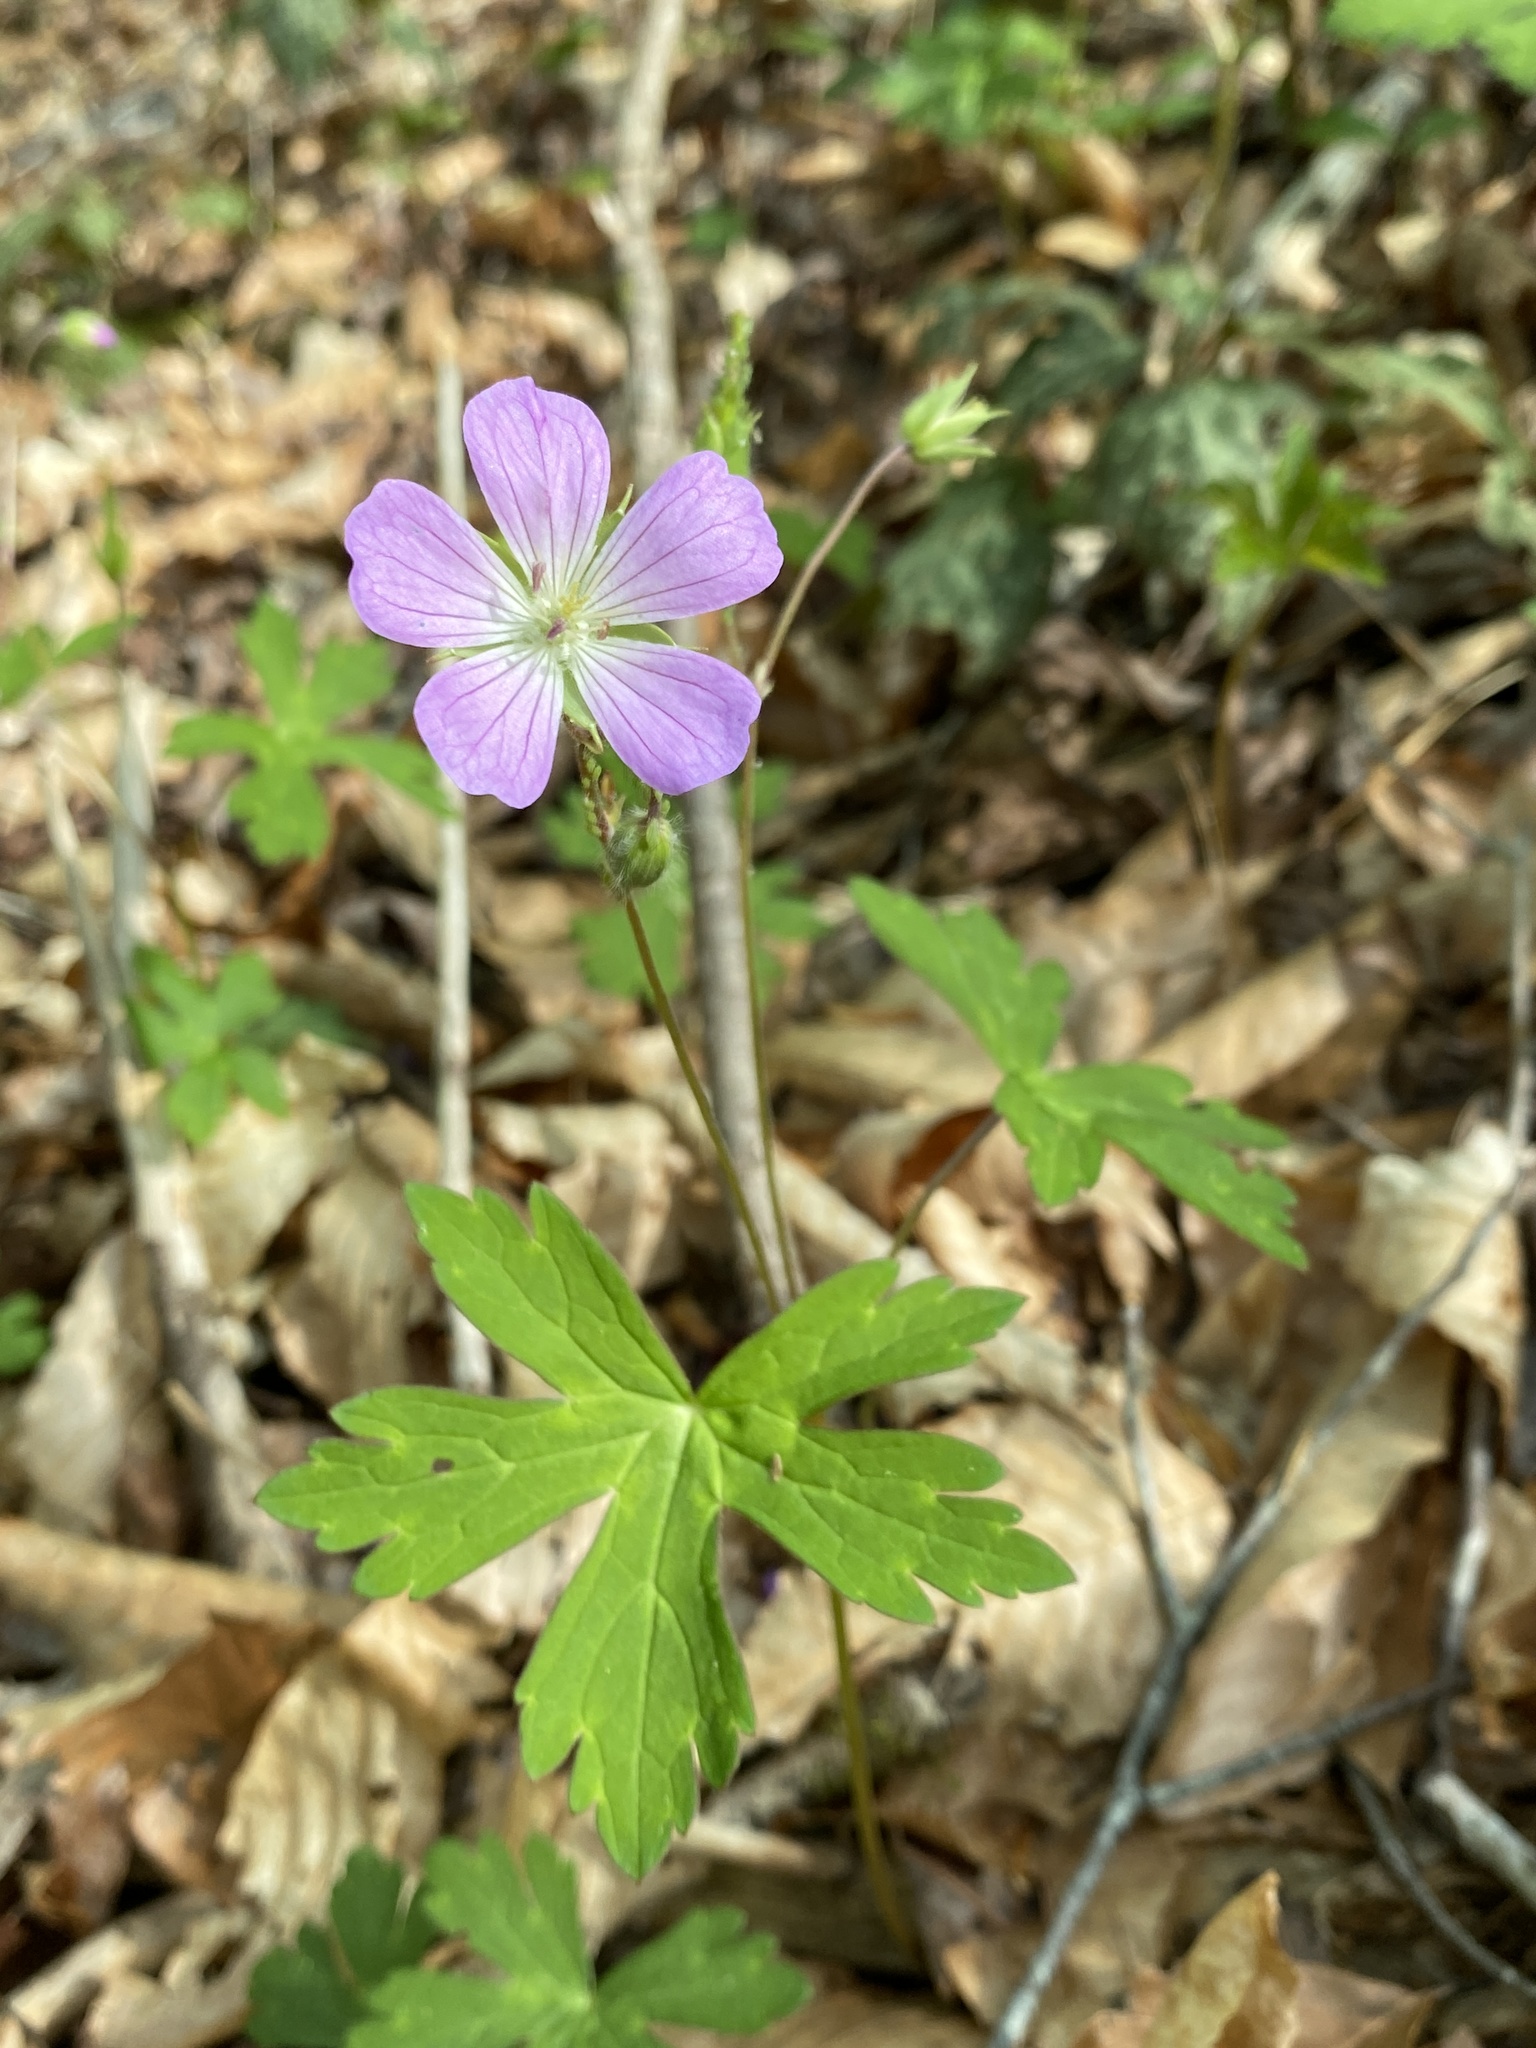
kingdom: Plantae
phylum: Tracheophyta
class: Magnoliopsida
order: Geraniales
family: Geraniaceae
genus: Geranium
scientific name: Geranium maculatum
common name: Spotted geranium
